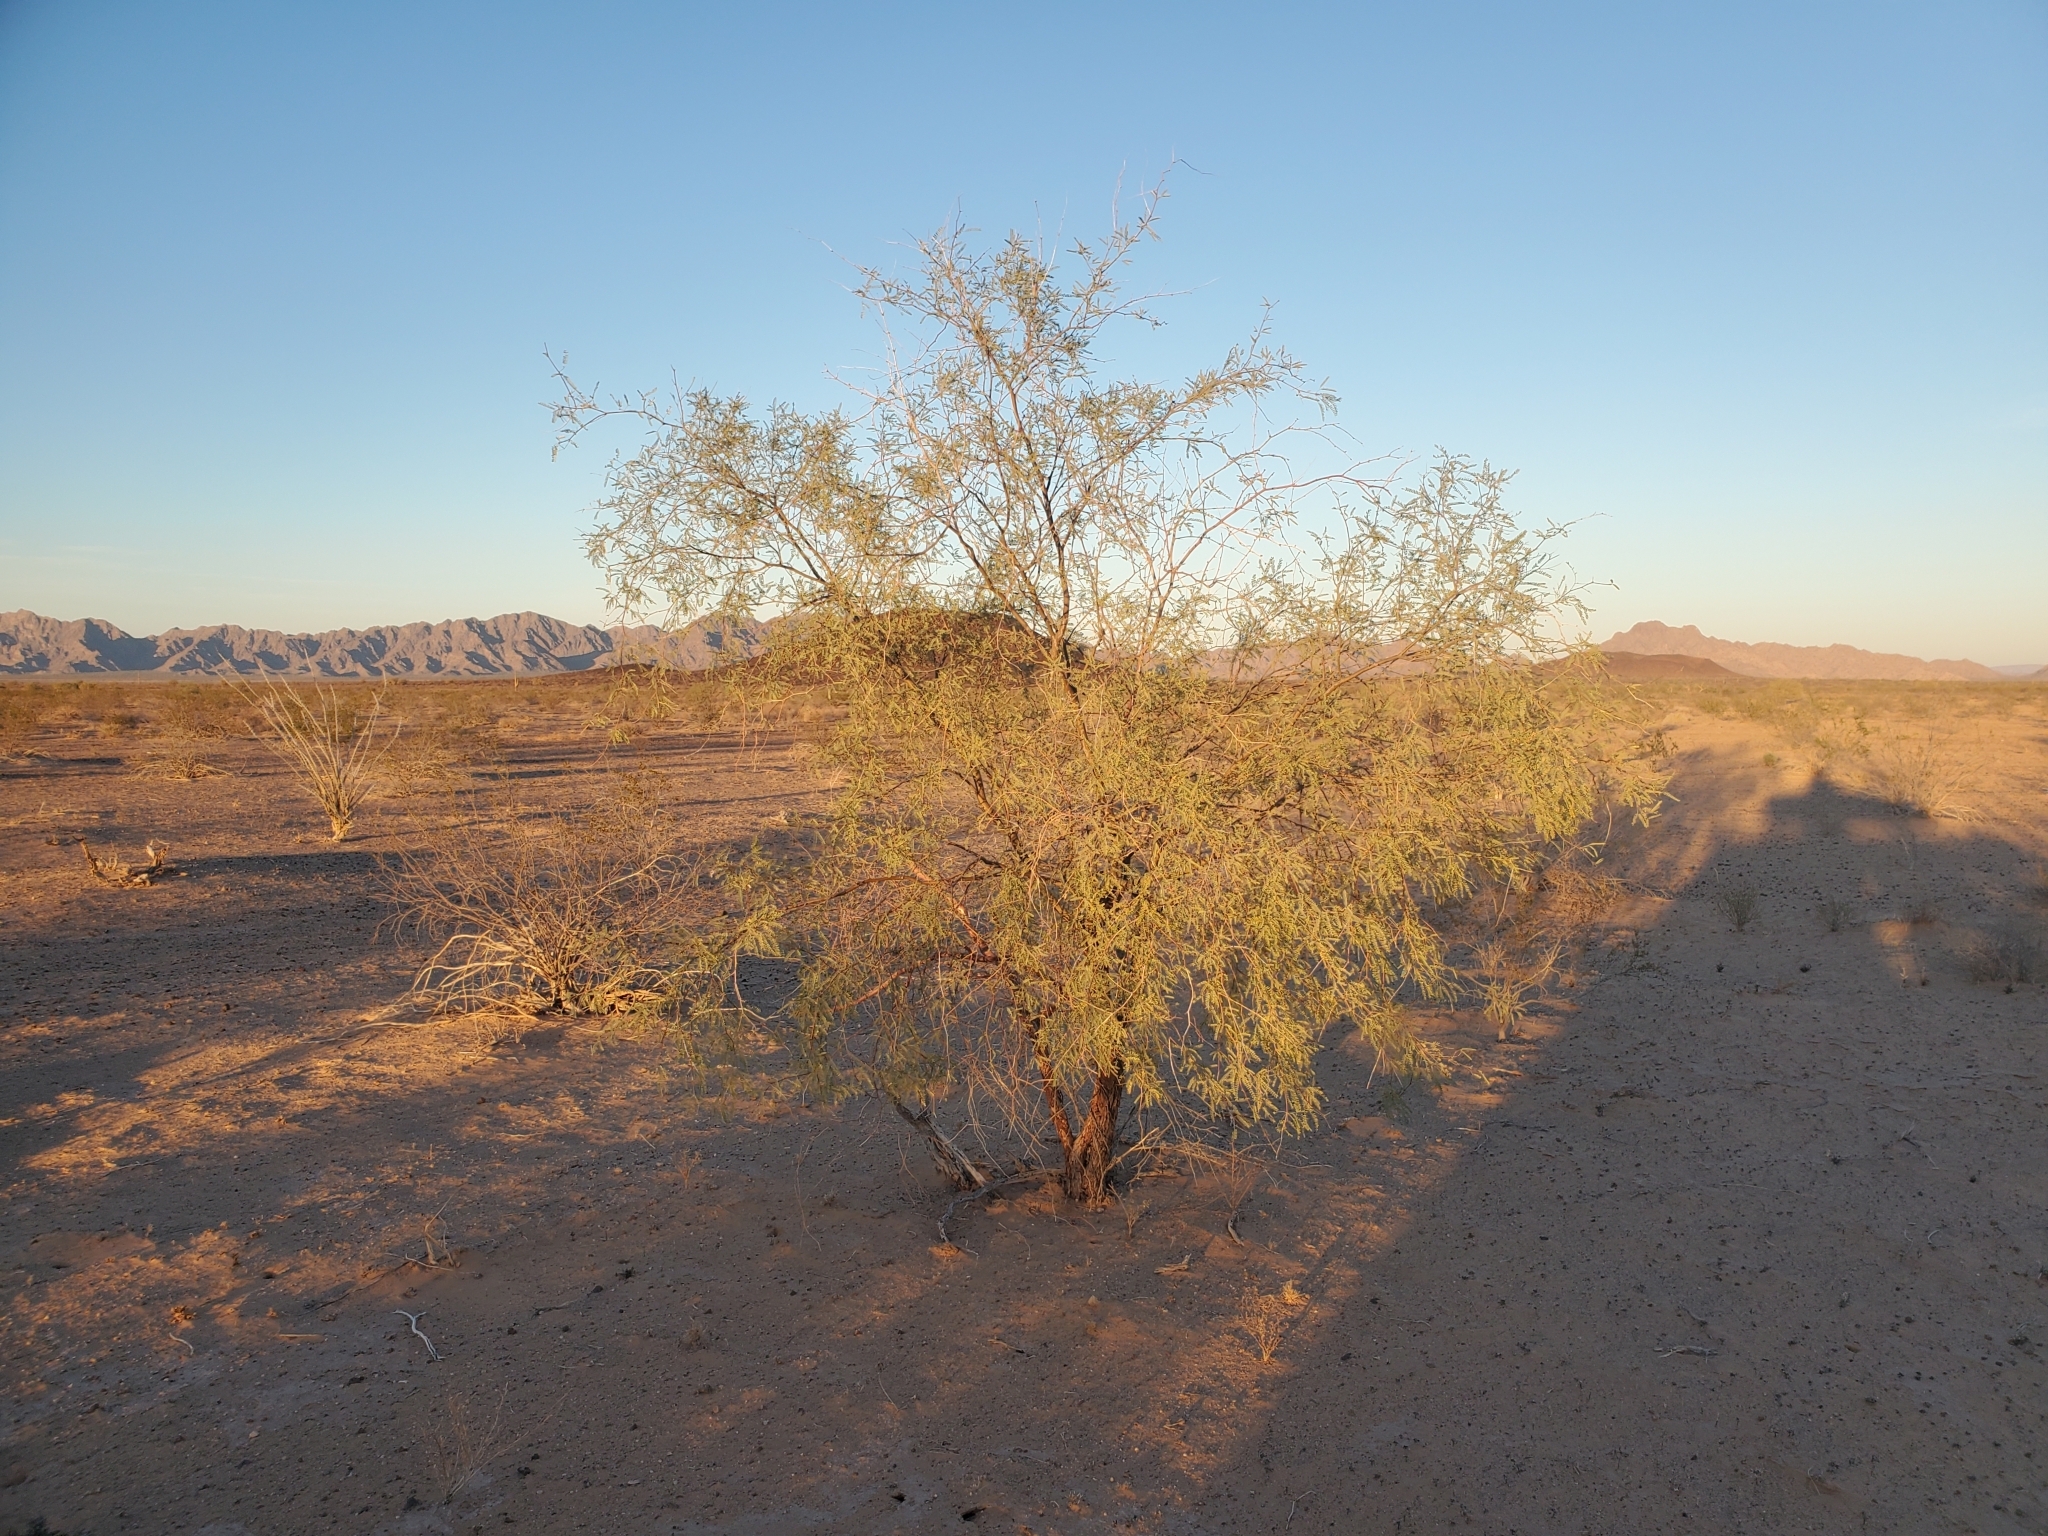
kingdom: Plantae
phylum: Tracheophyta
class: Magnoliopsida
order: Fabales
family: Fabaceae
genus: Prosopis
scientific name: Prosopis velutina
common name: Velvet mesquite
